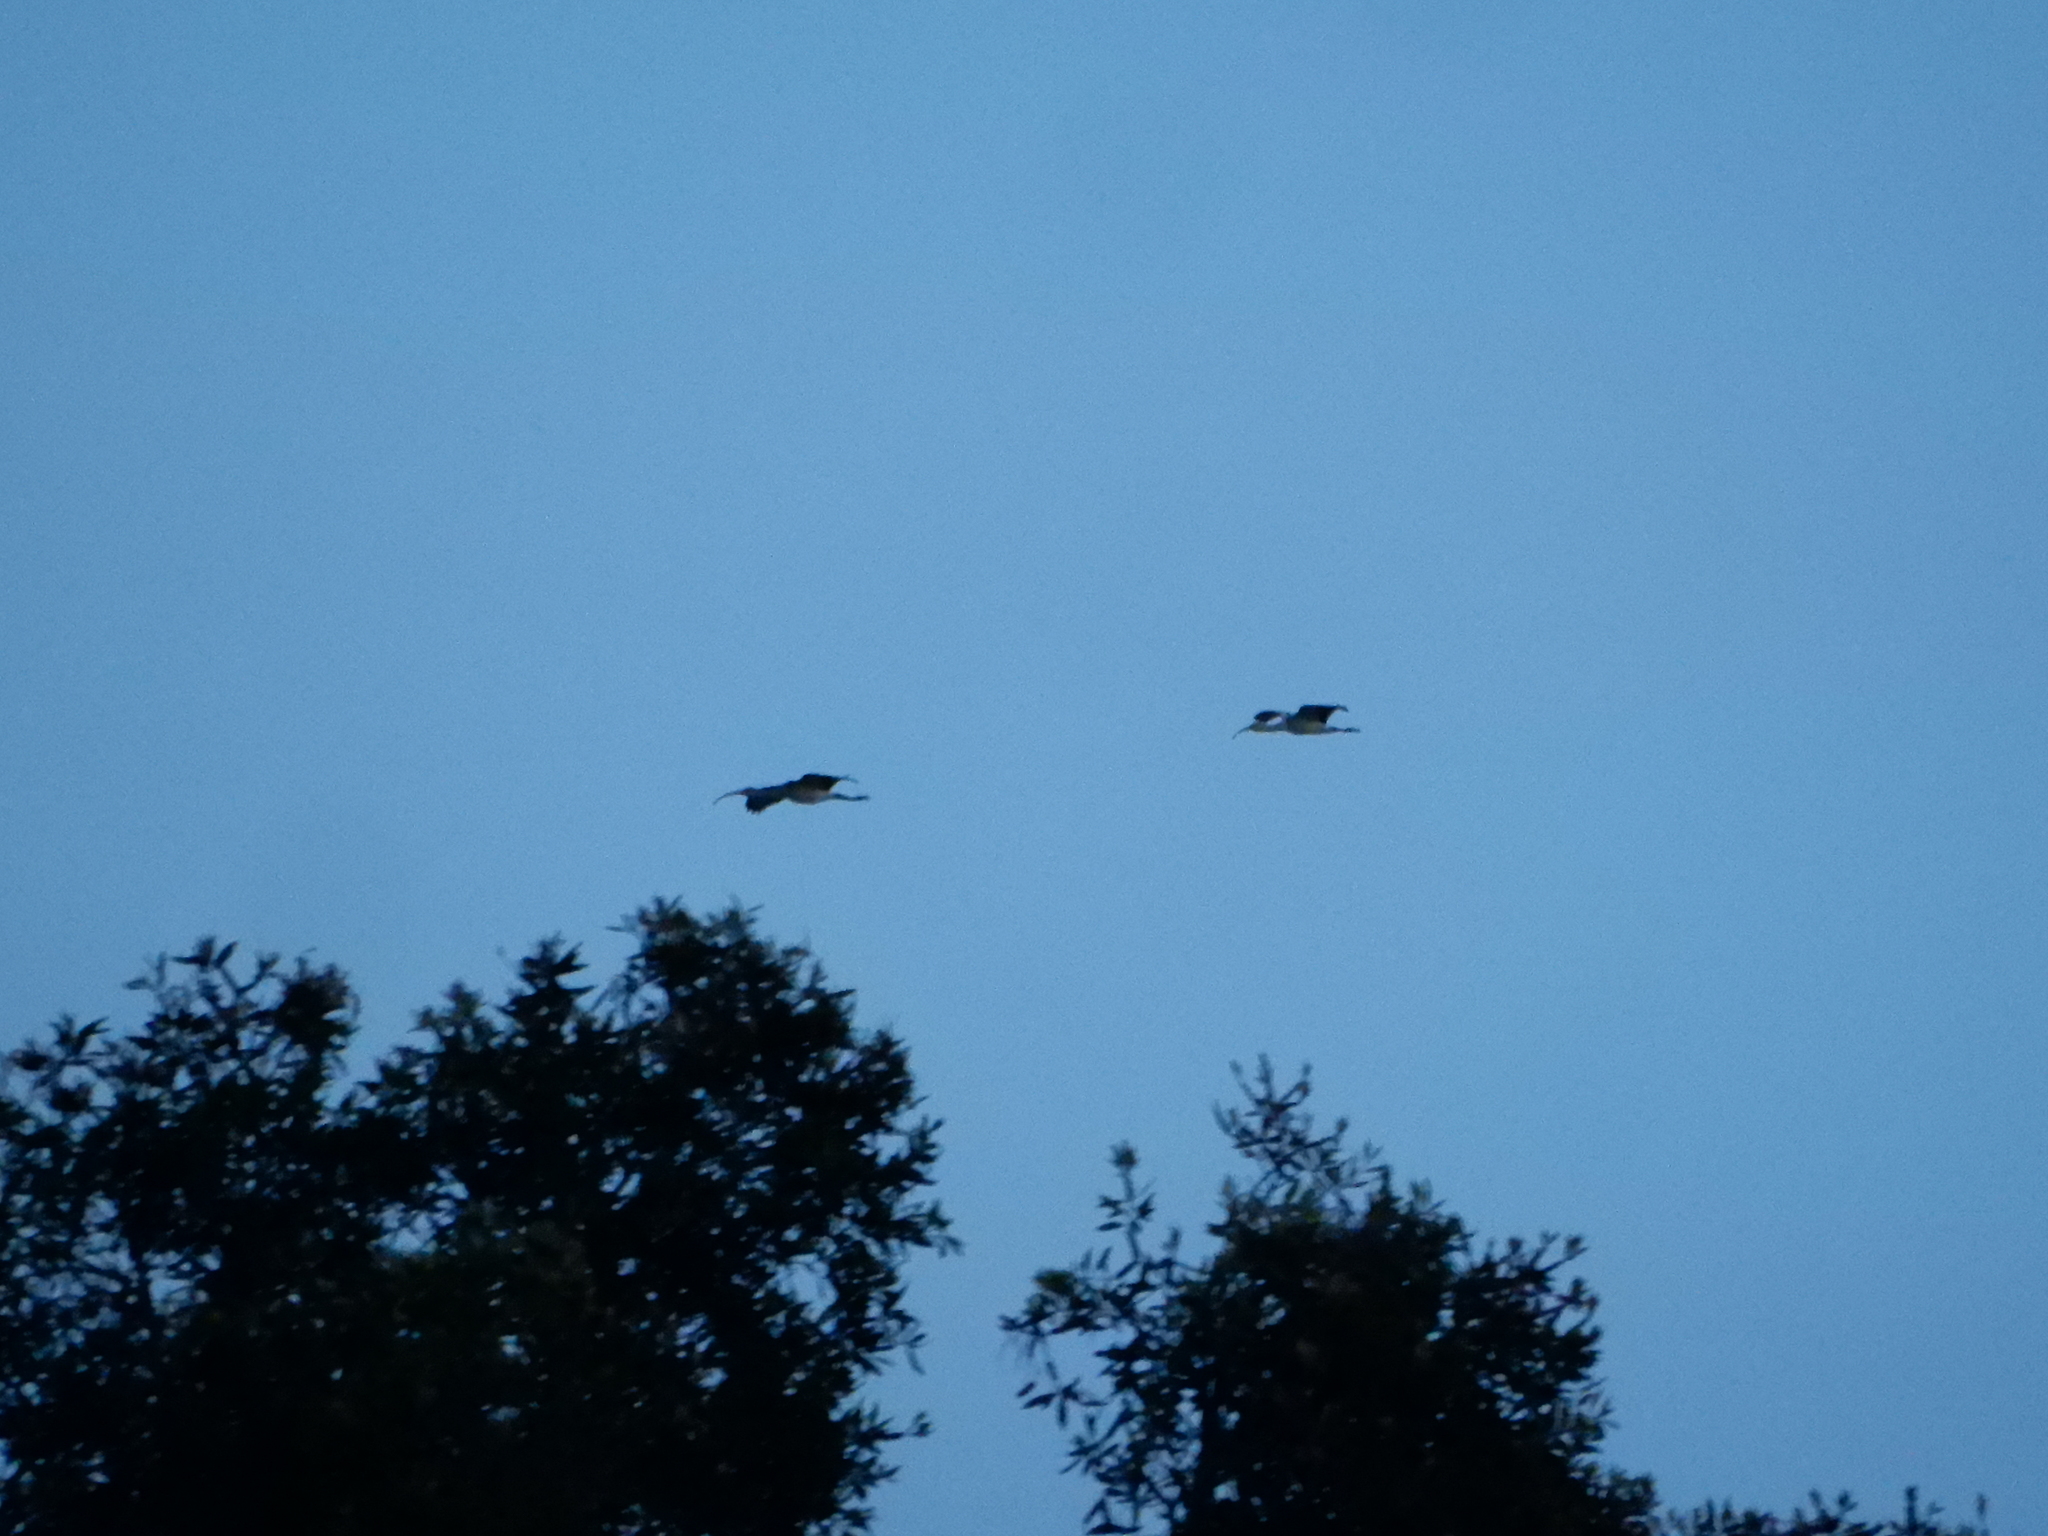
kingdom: Animalia
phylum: Chordata
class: Aves
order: Pelecaniformes
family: Threskiornithidae
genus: Eudocimus
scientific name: Eudocimus albus
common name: White ibis
